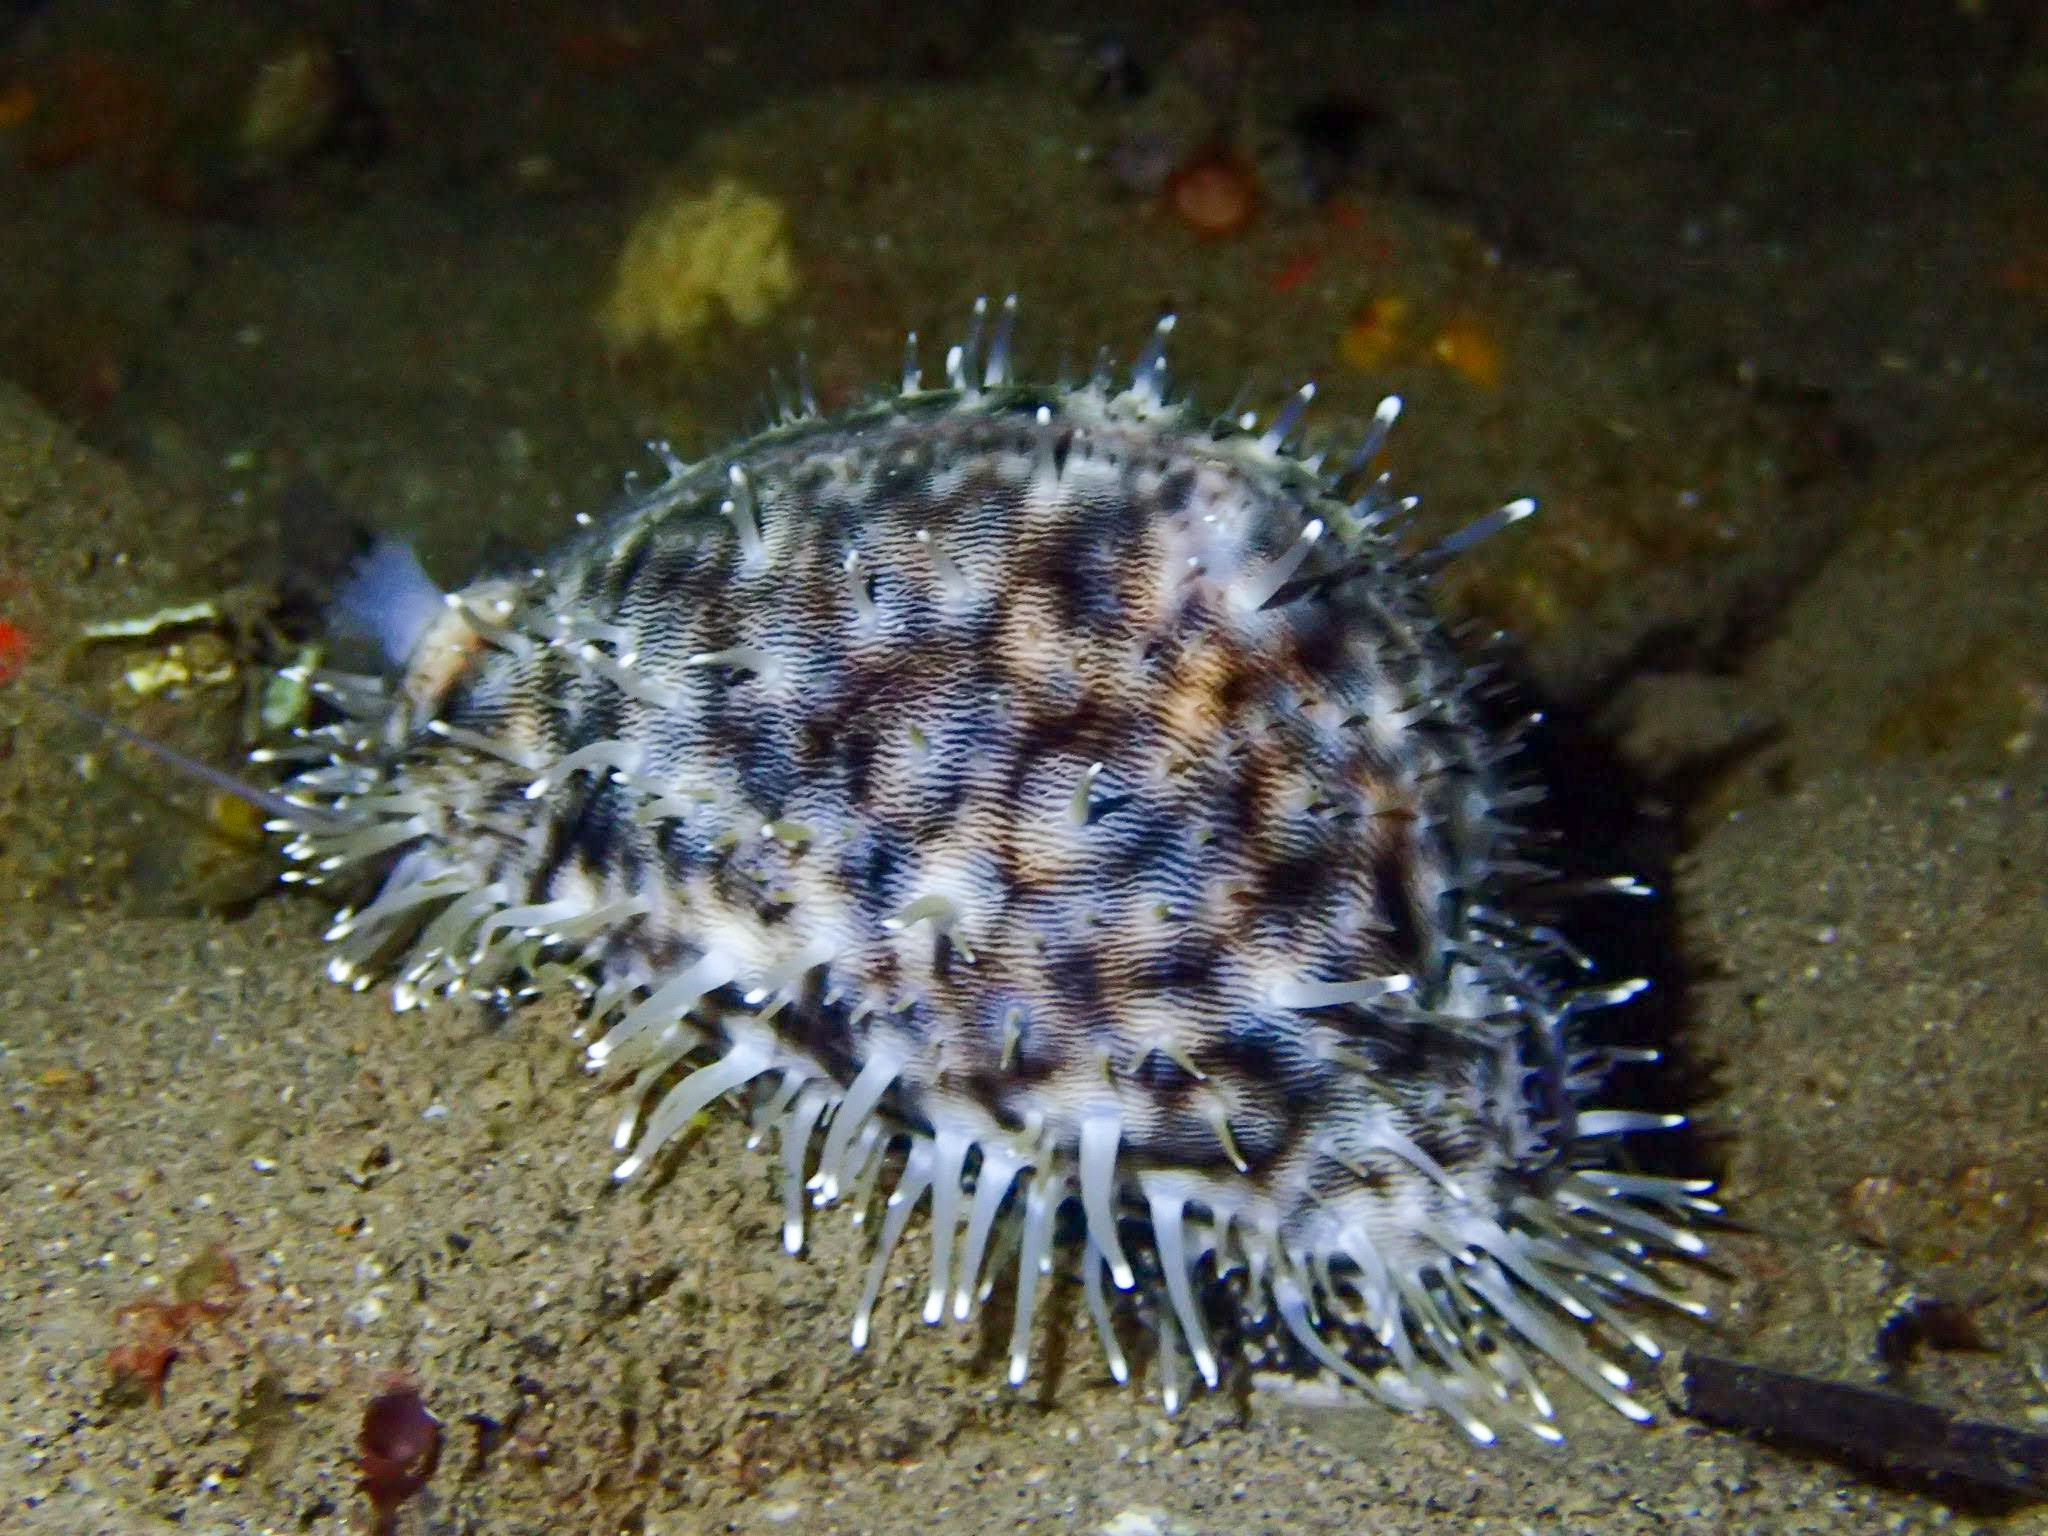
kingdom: Animalia
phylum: Mollusca
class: Gastropoda
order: Littorinimorpha
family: Cypraeidae
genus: Cypraea
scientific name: Cypraea tigris
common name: Tiger cowrie
